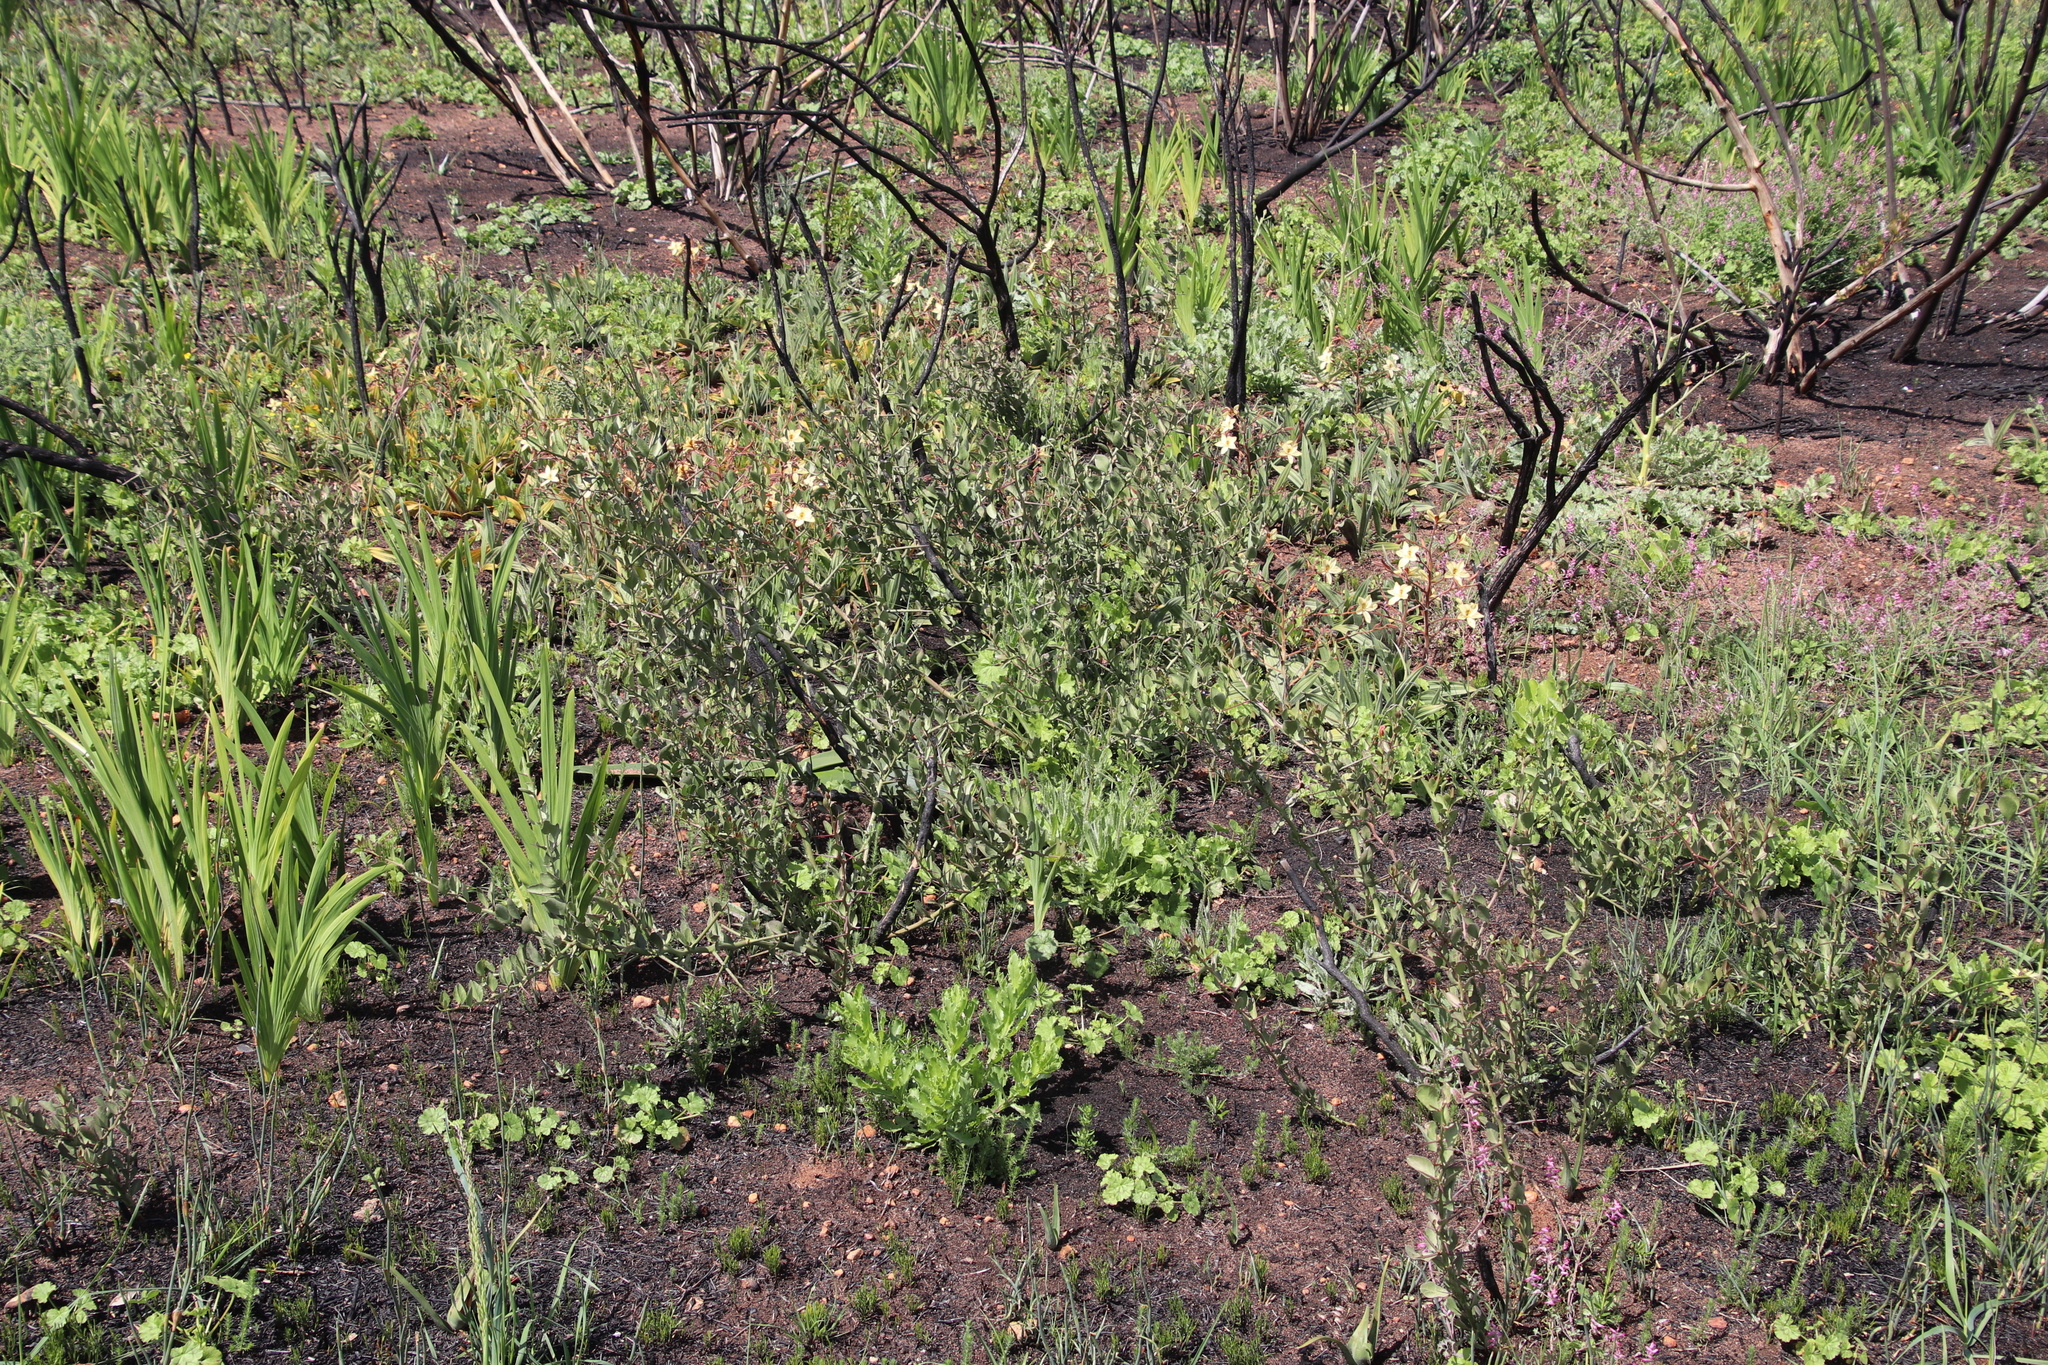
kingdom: Plantae
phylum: Tracheophyta
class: Magnoliopsida
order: Celastrales
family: Celastraceae
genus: Gymnosporia
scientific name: Gymnosporia buxifolia
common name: Common spike-thorn
